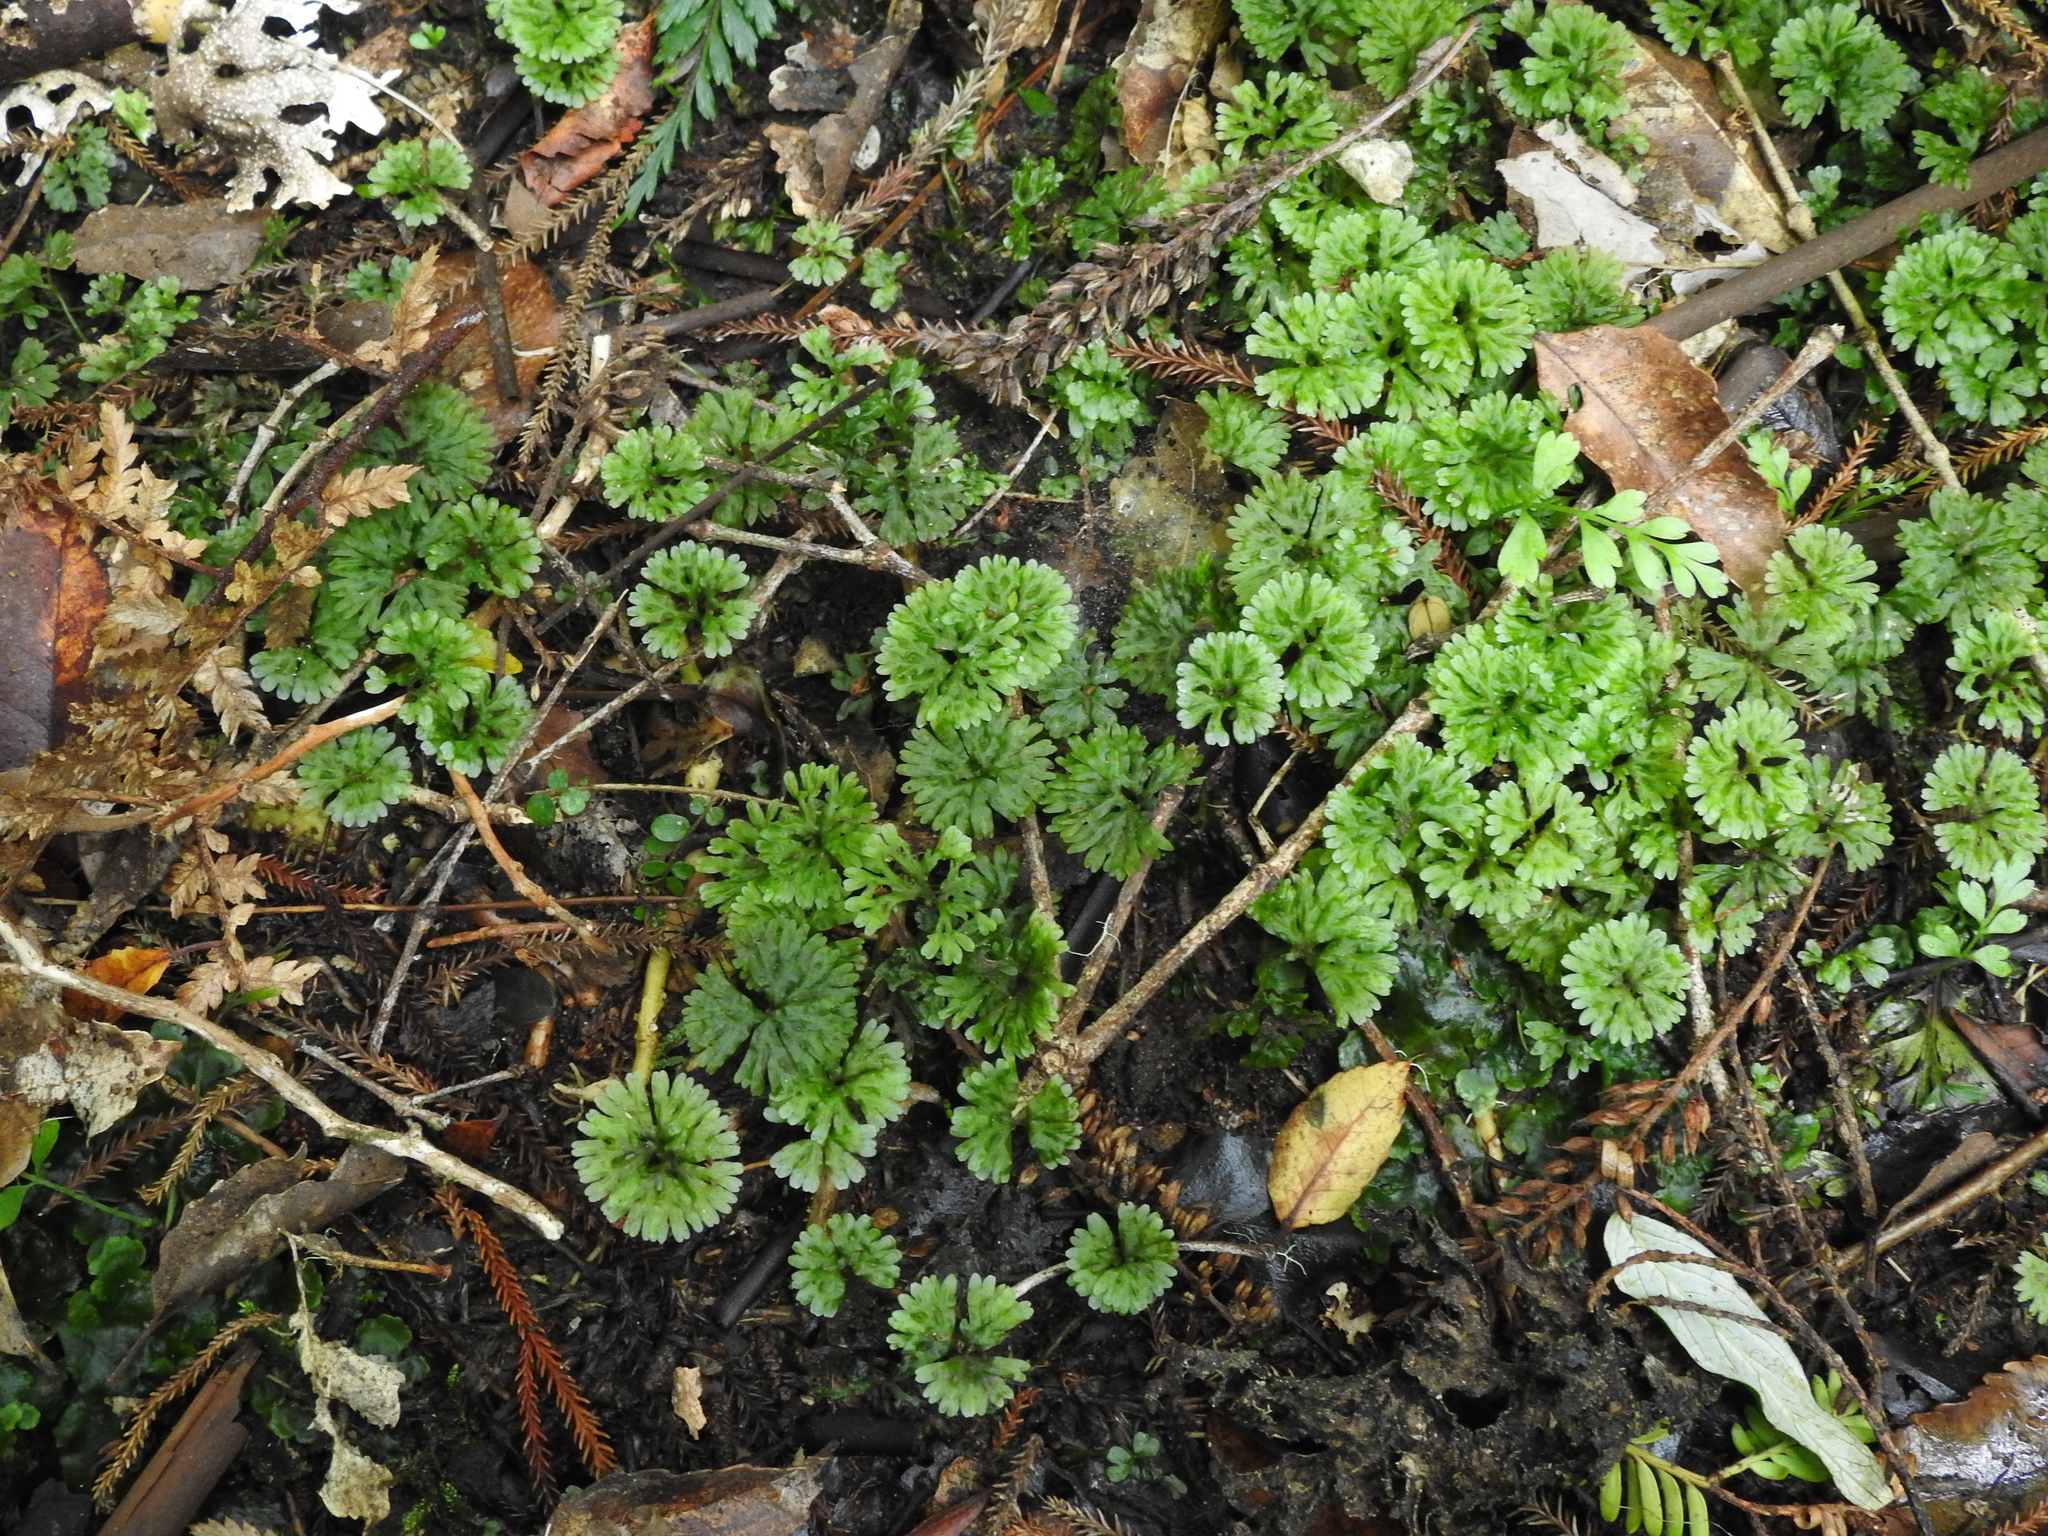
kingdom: Plantae
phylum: Marchantiophyta
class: Jungermanniopsida
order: Pallaviciniales
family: Hymenophytaceae
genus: Hymenophyton
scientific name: Hymenophyton flabellatum
